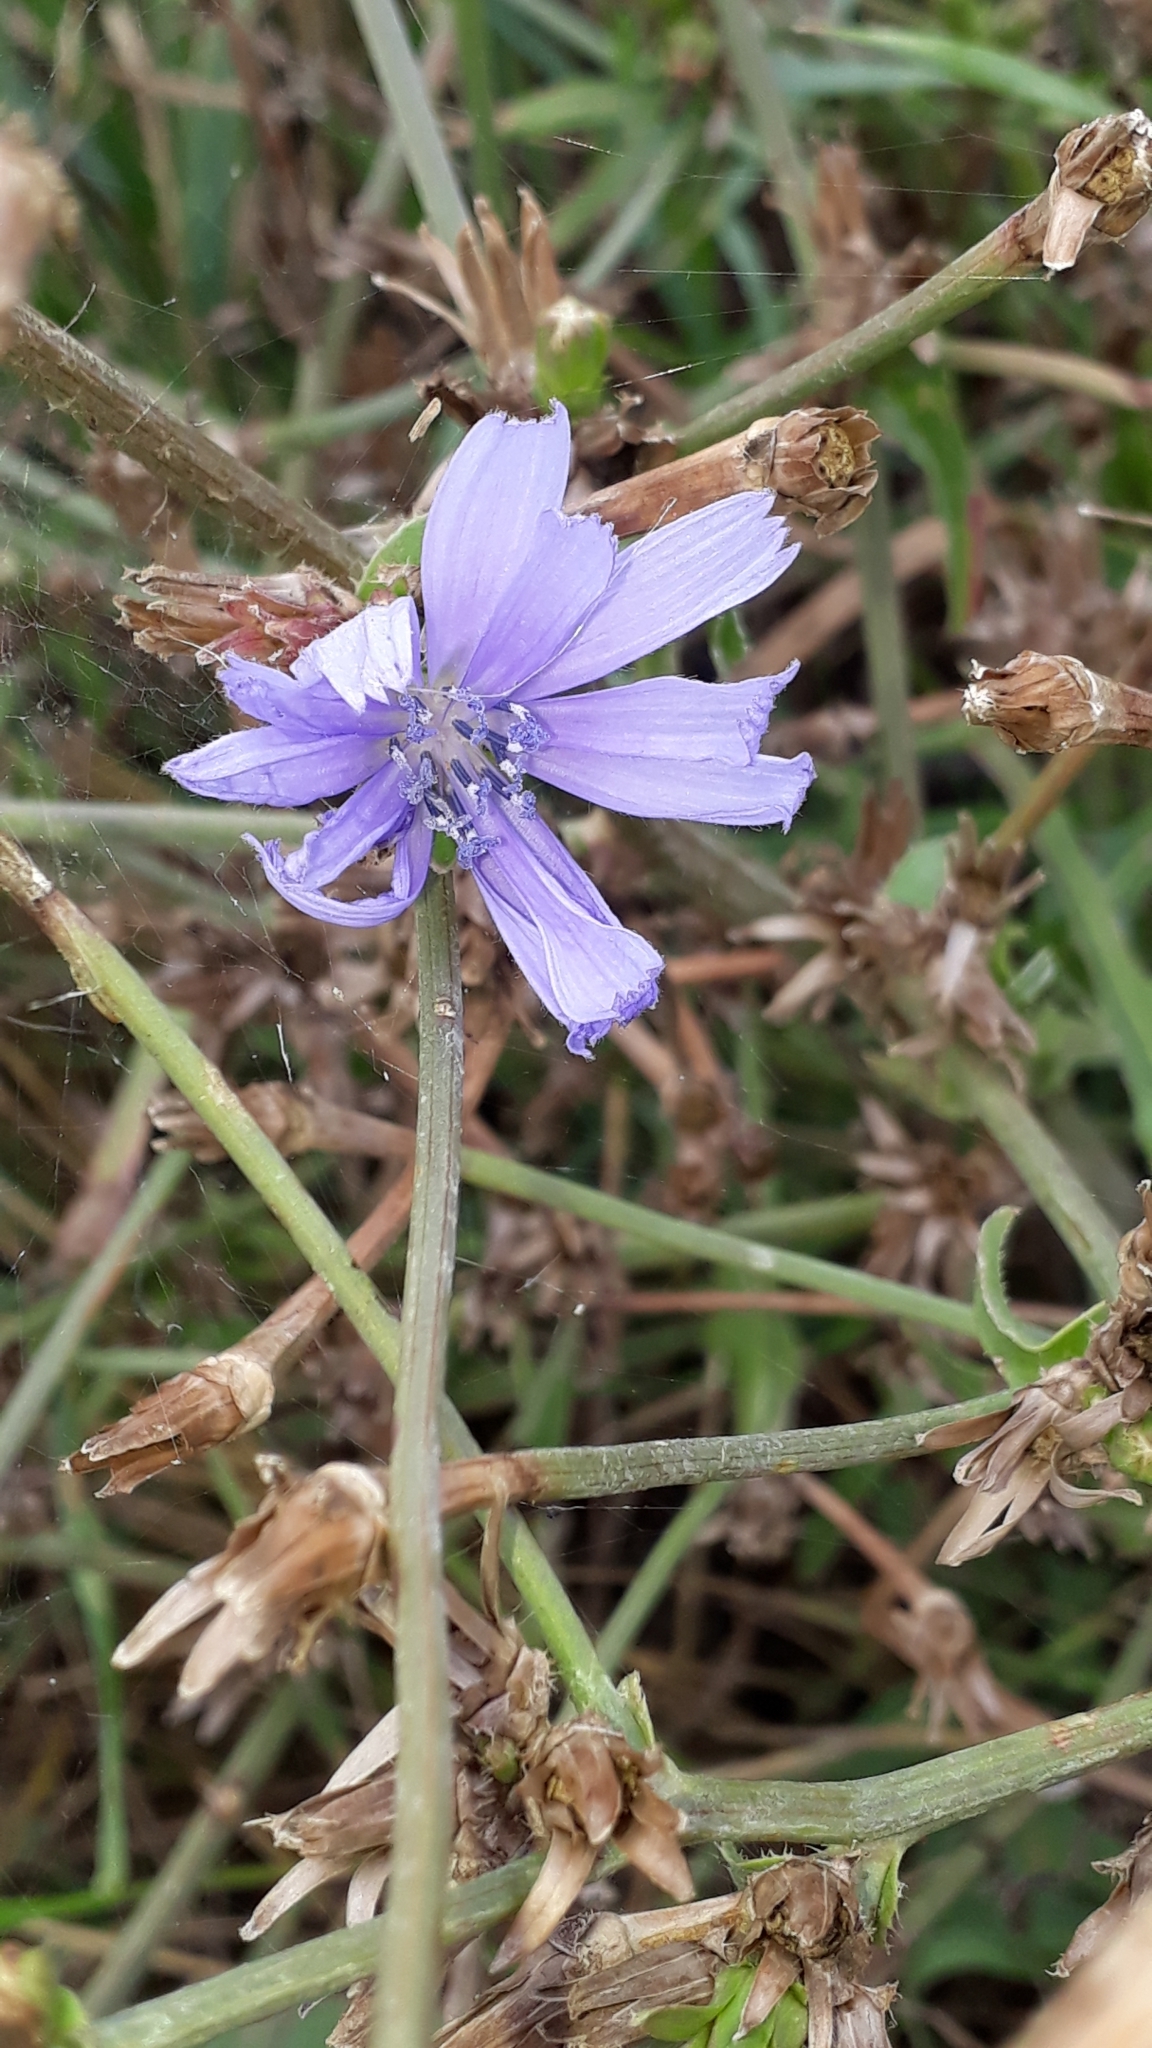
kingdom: Plantae
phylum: Tracheophyta
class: Magnoliopsida
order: Asterales
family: Asteraceae
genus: Cichorium
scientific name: Cichorium intybus
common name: Chicory
